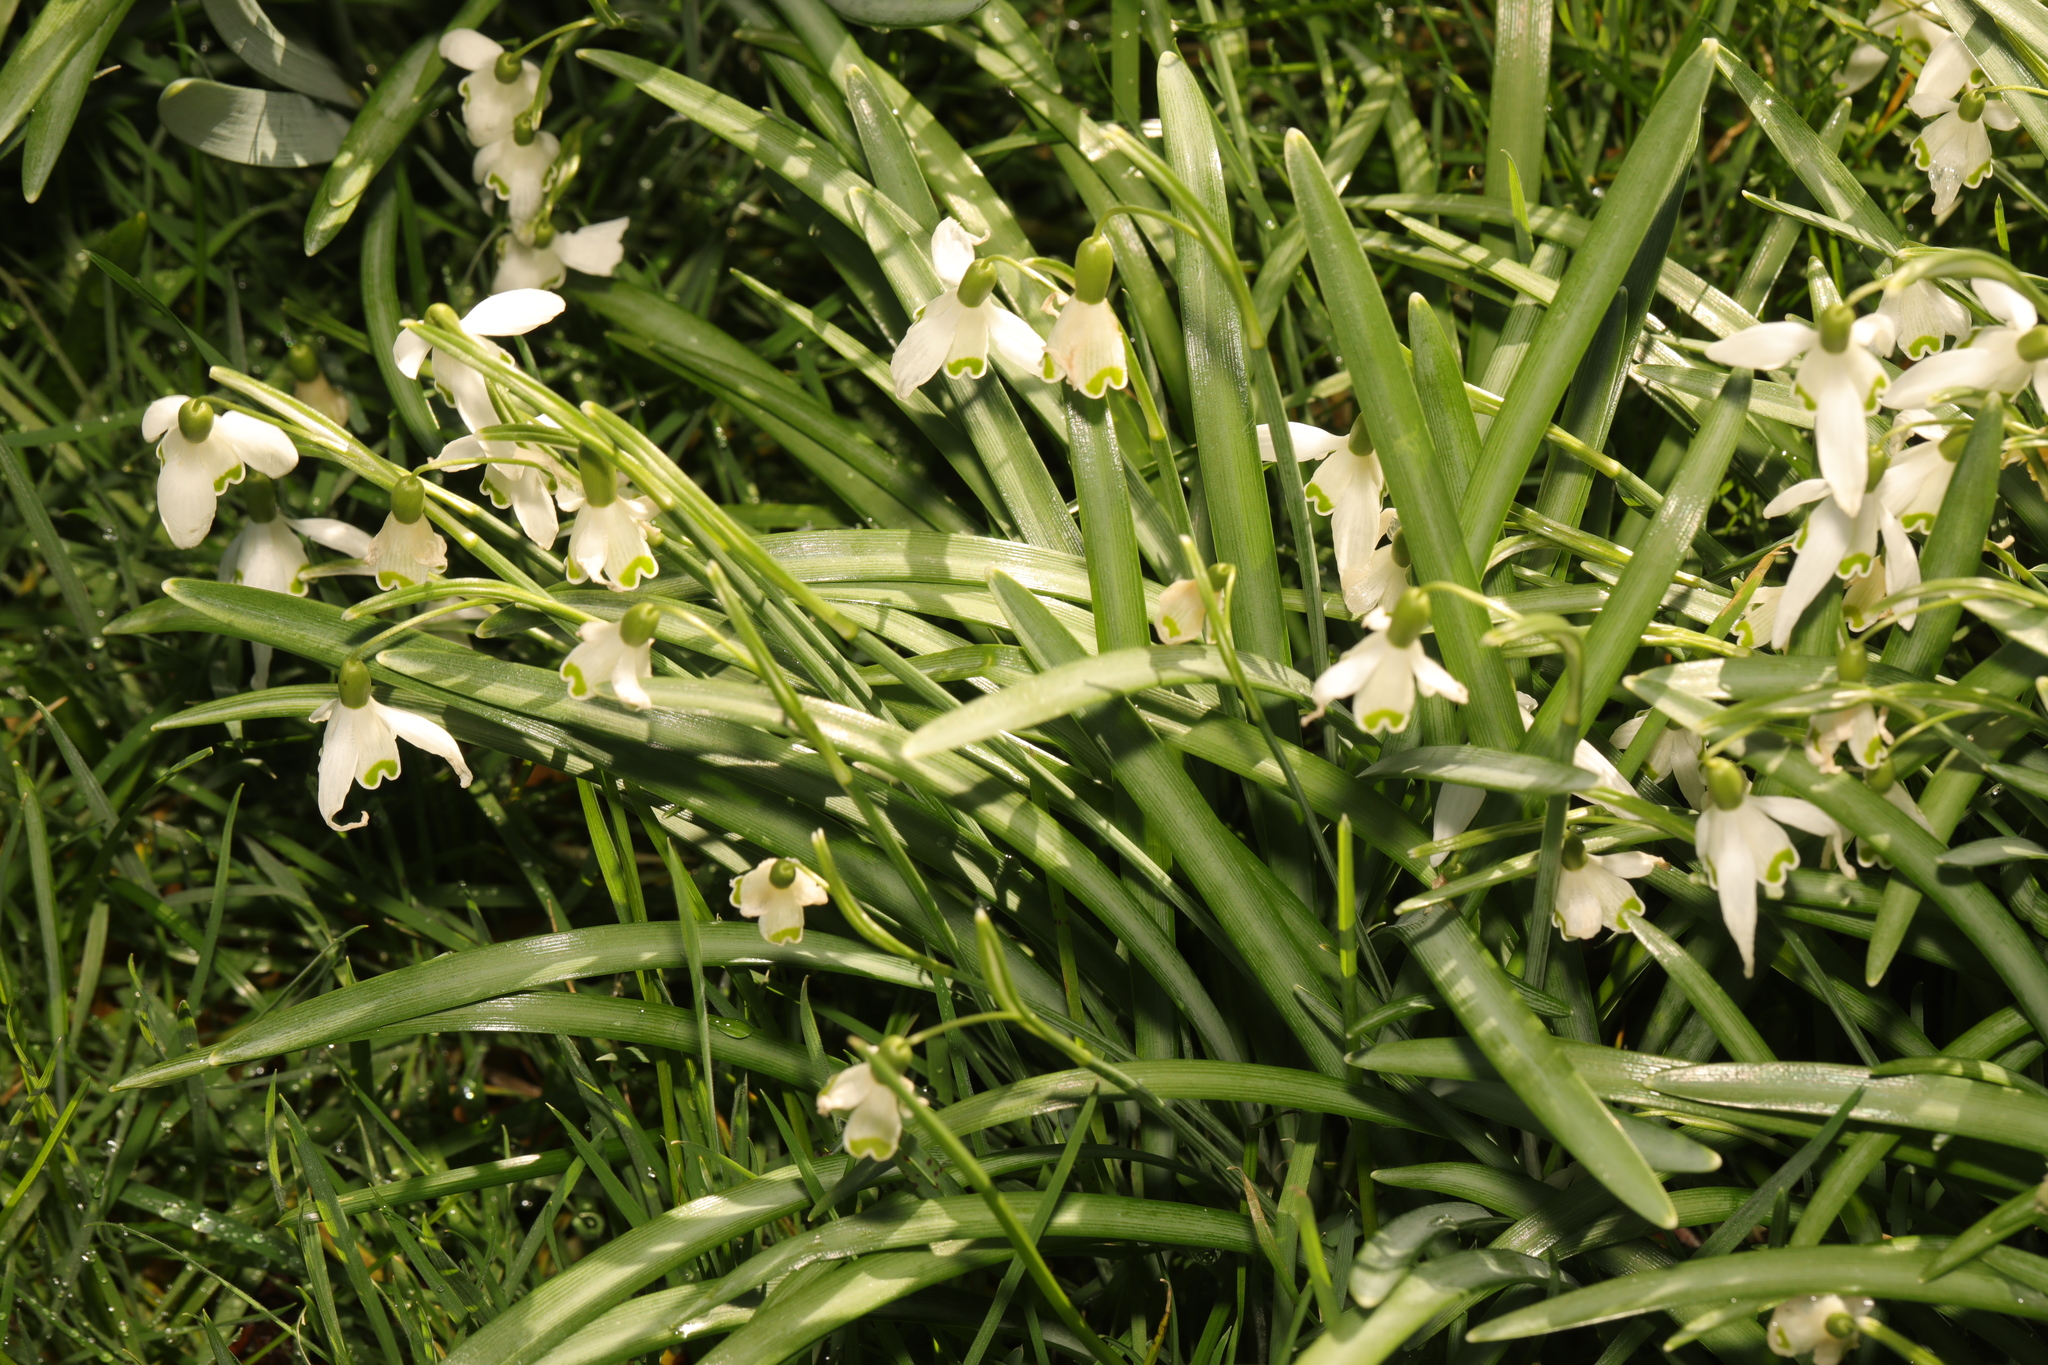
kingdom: Plantae
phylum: Tracheophyta
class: Liliopsida
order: Asparagales
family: Amaryllidaceae
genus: Galanthus
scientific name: Galanthus nivalis
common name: Snowdrop
